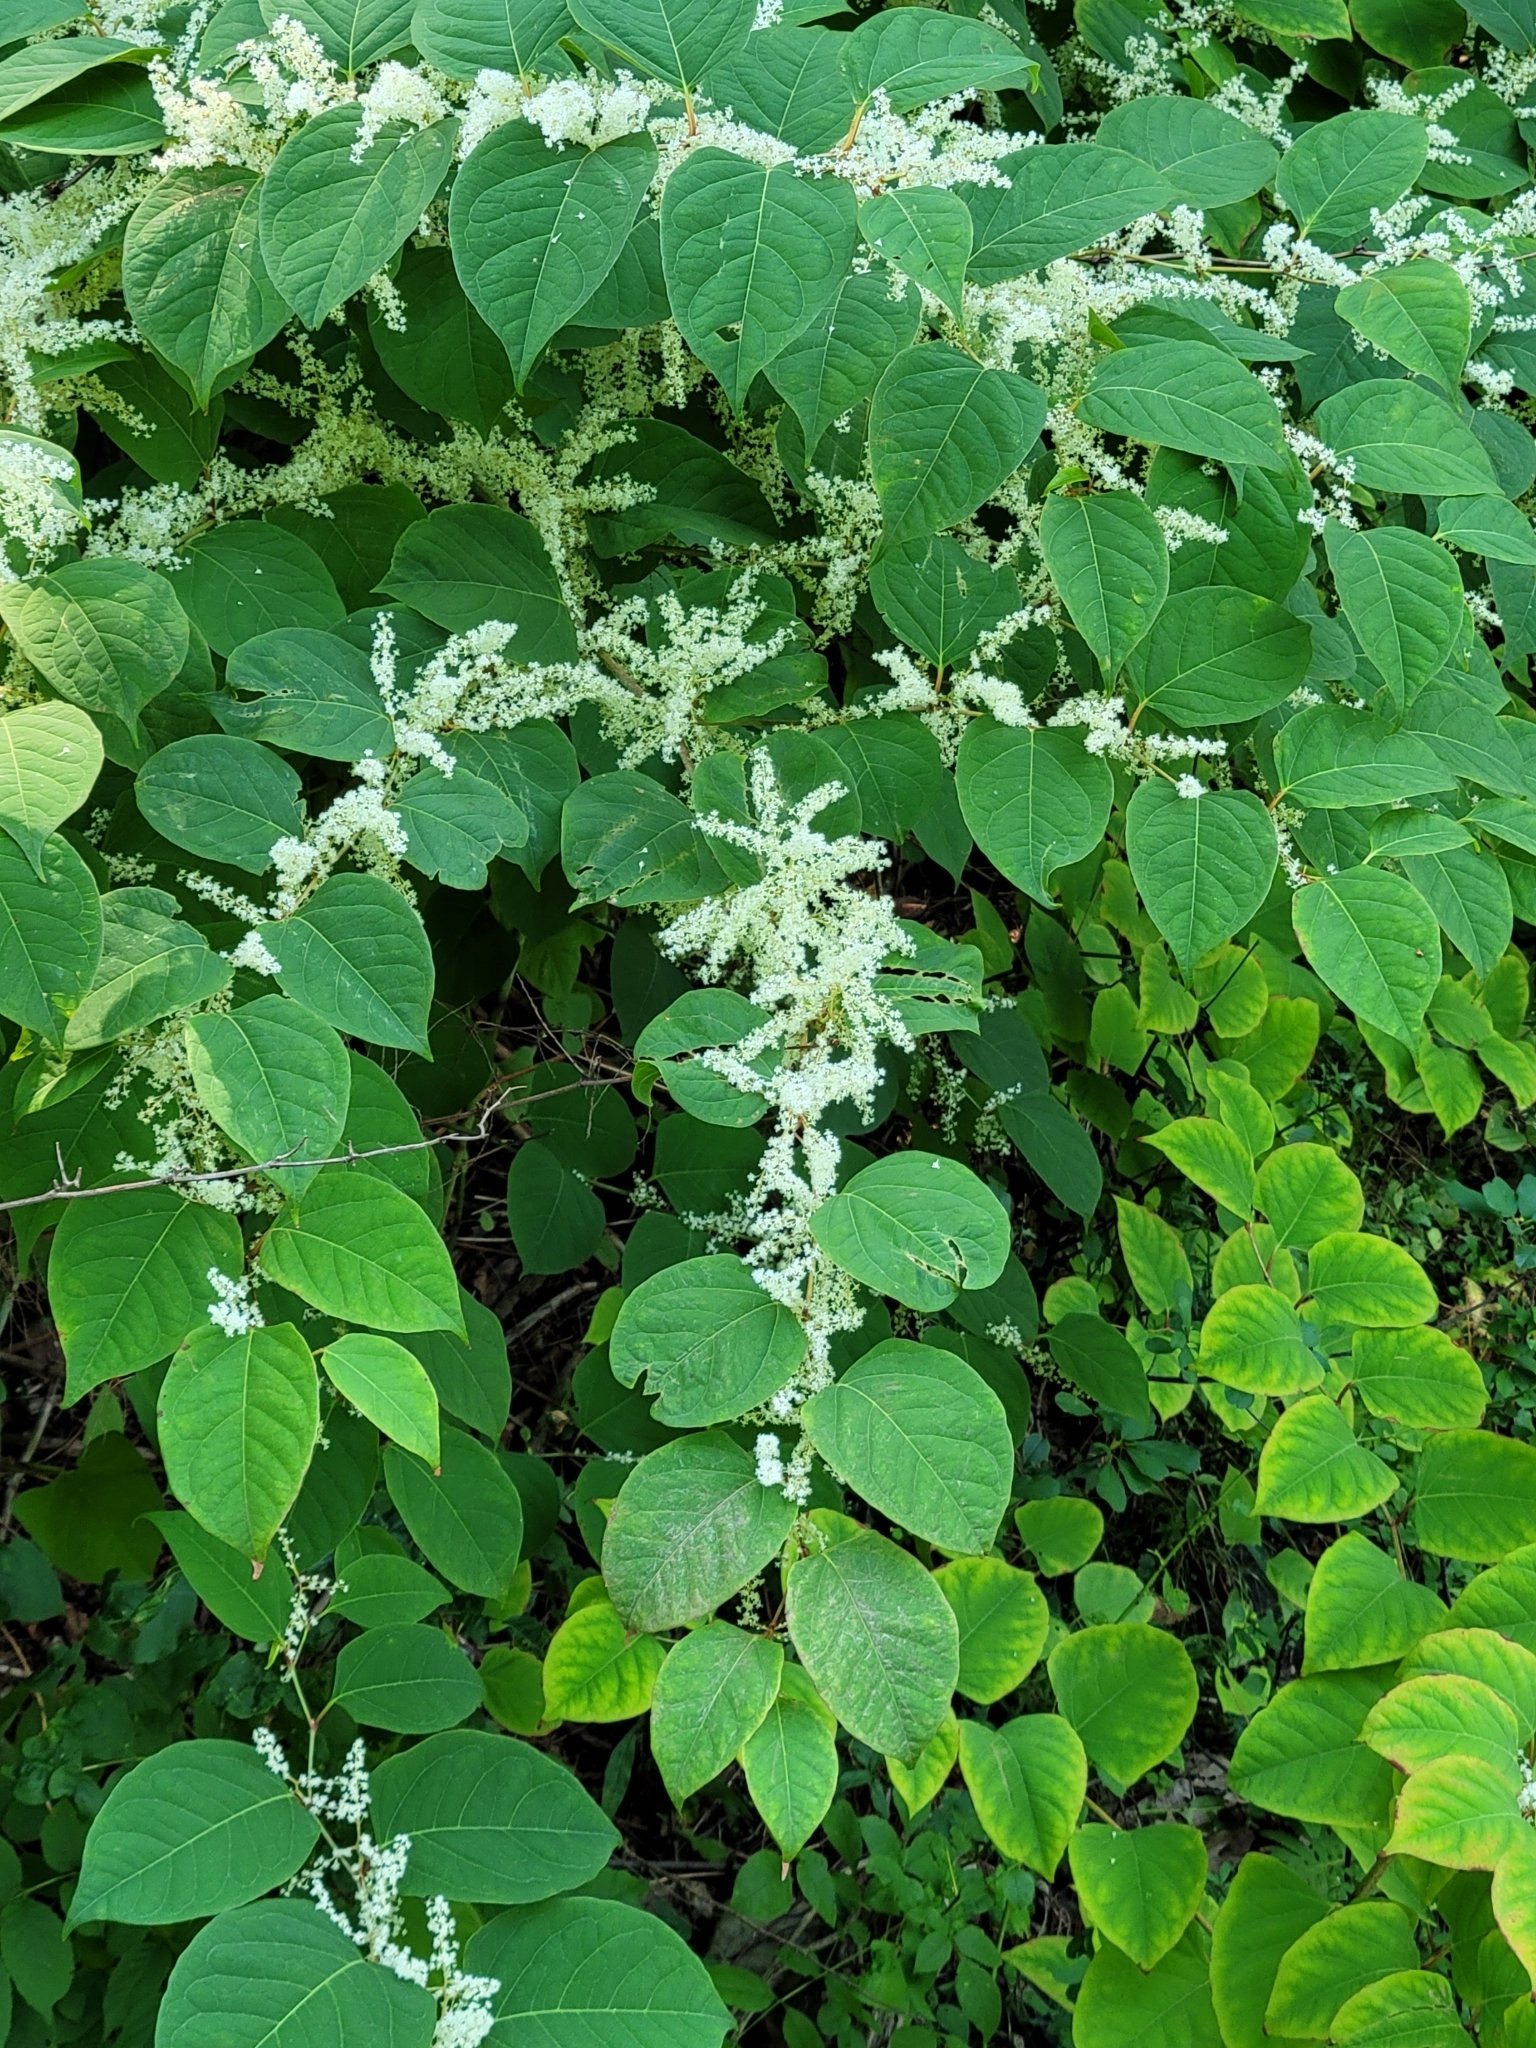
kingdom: Plantae
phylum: Tracheophyta
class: Magnoliopsida
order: Caryophyllales
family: Polygonaceae
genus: Reynoutria
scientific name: Reynoutria japonica
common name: Japanese knotweed
